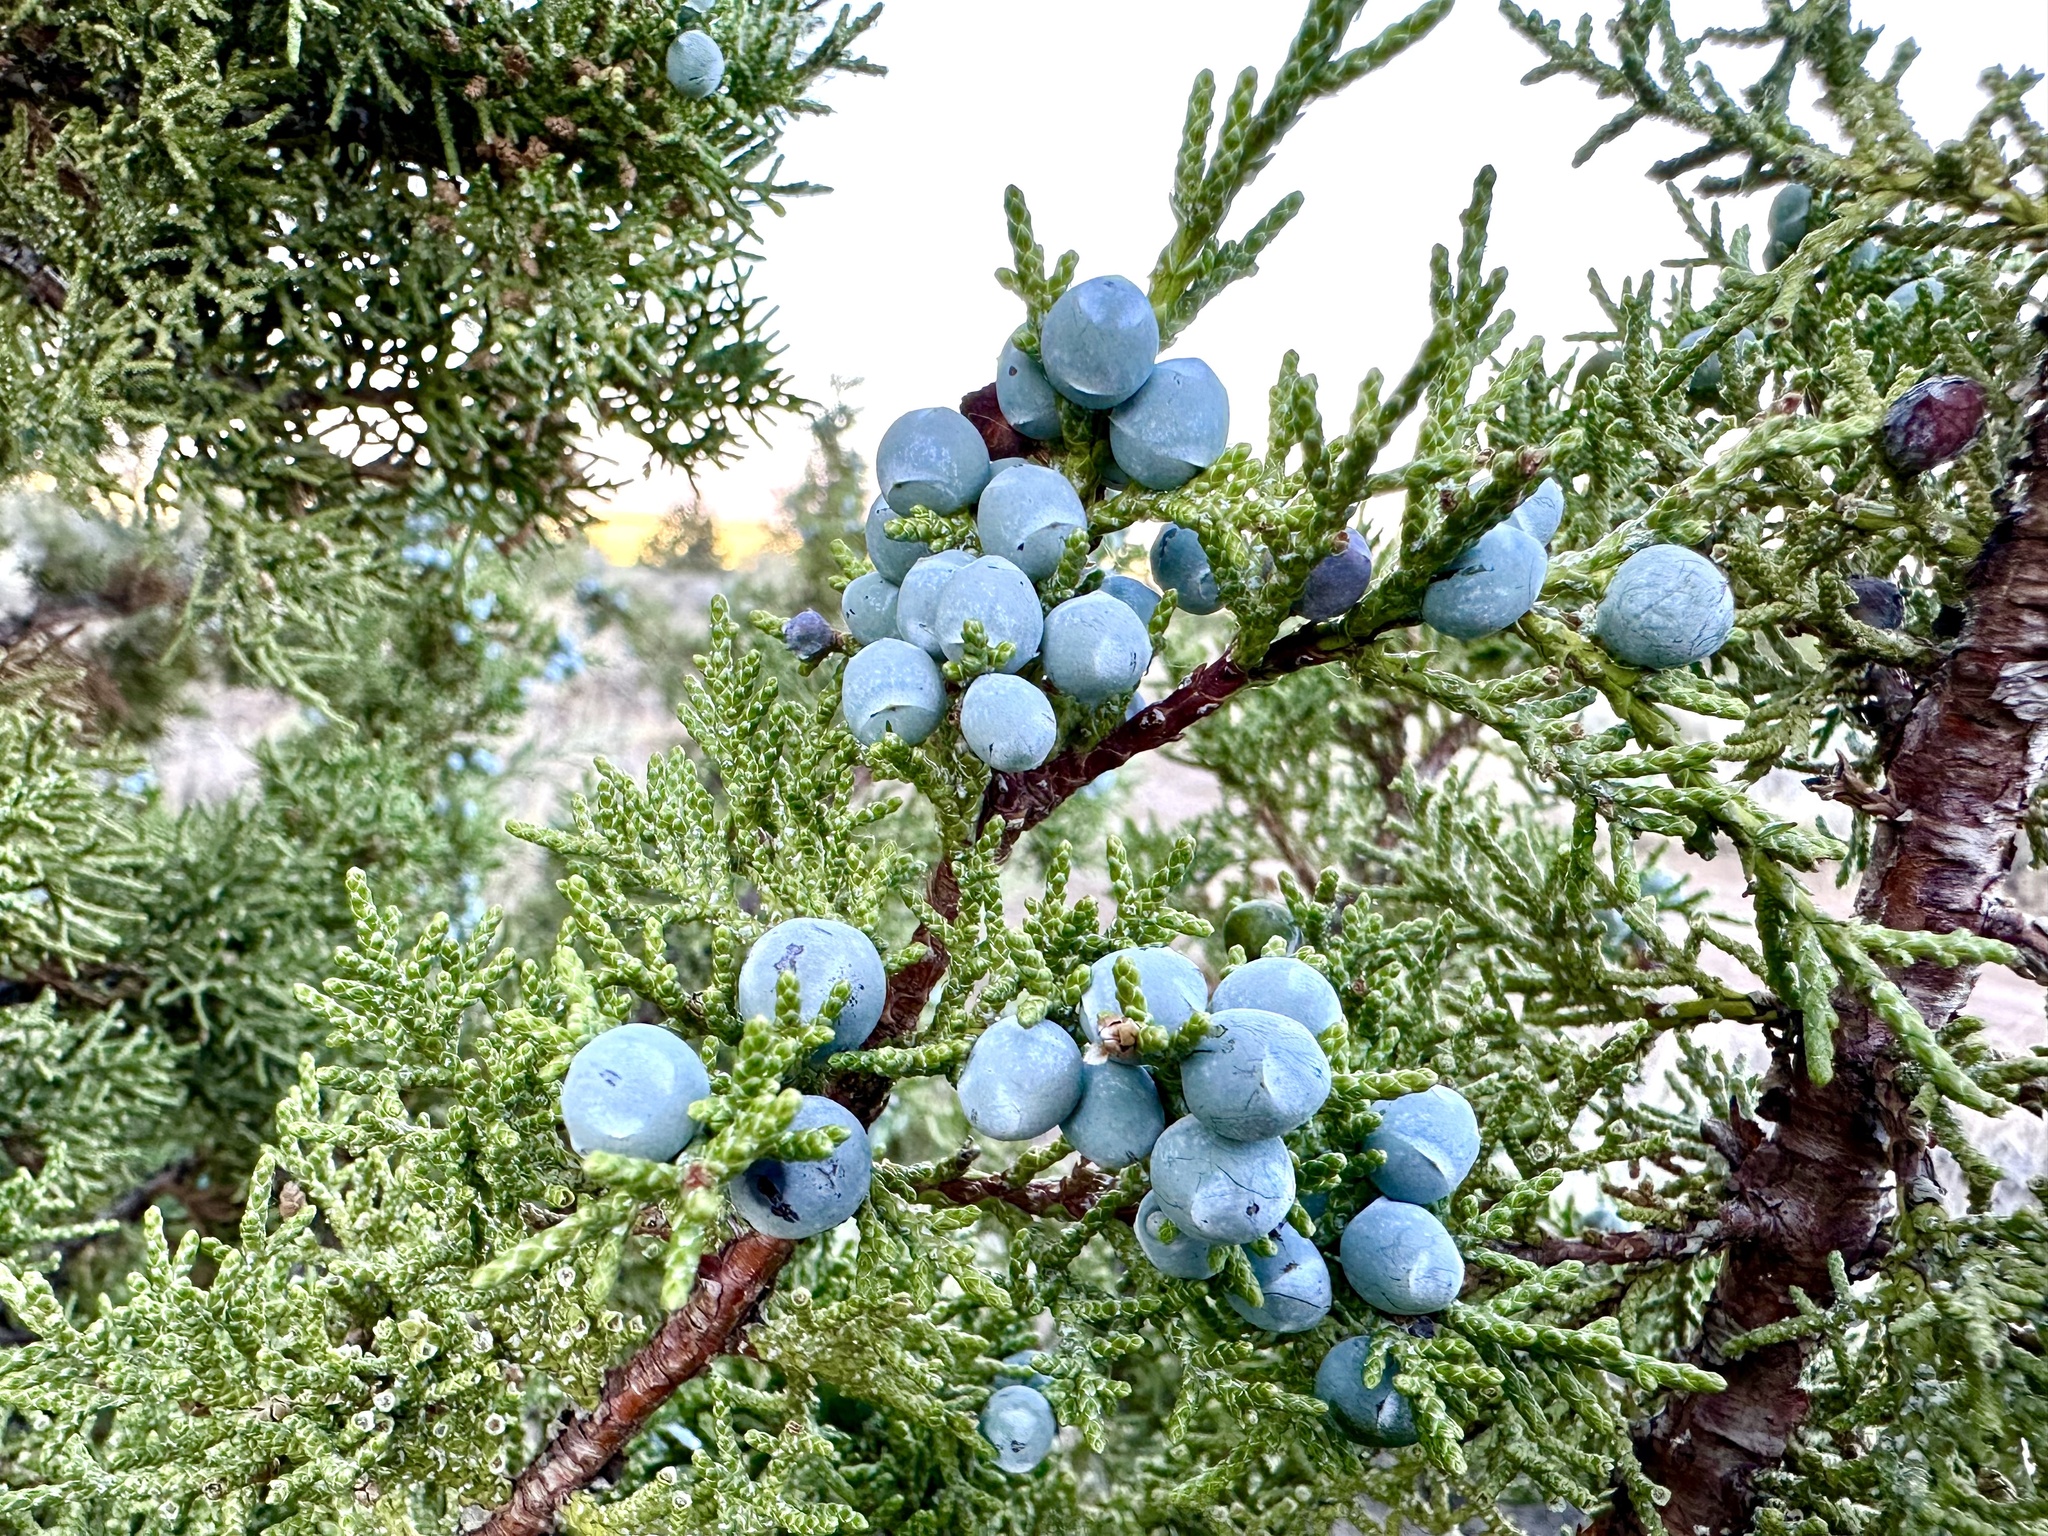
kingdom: Plantae
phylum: Tracheophyta
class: Pinopsida
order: Pinales
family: Cupressaceae
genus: Juniperus
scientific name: Juniperus occidentalis
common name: Western juniper
